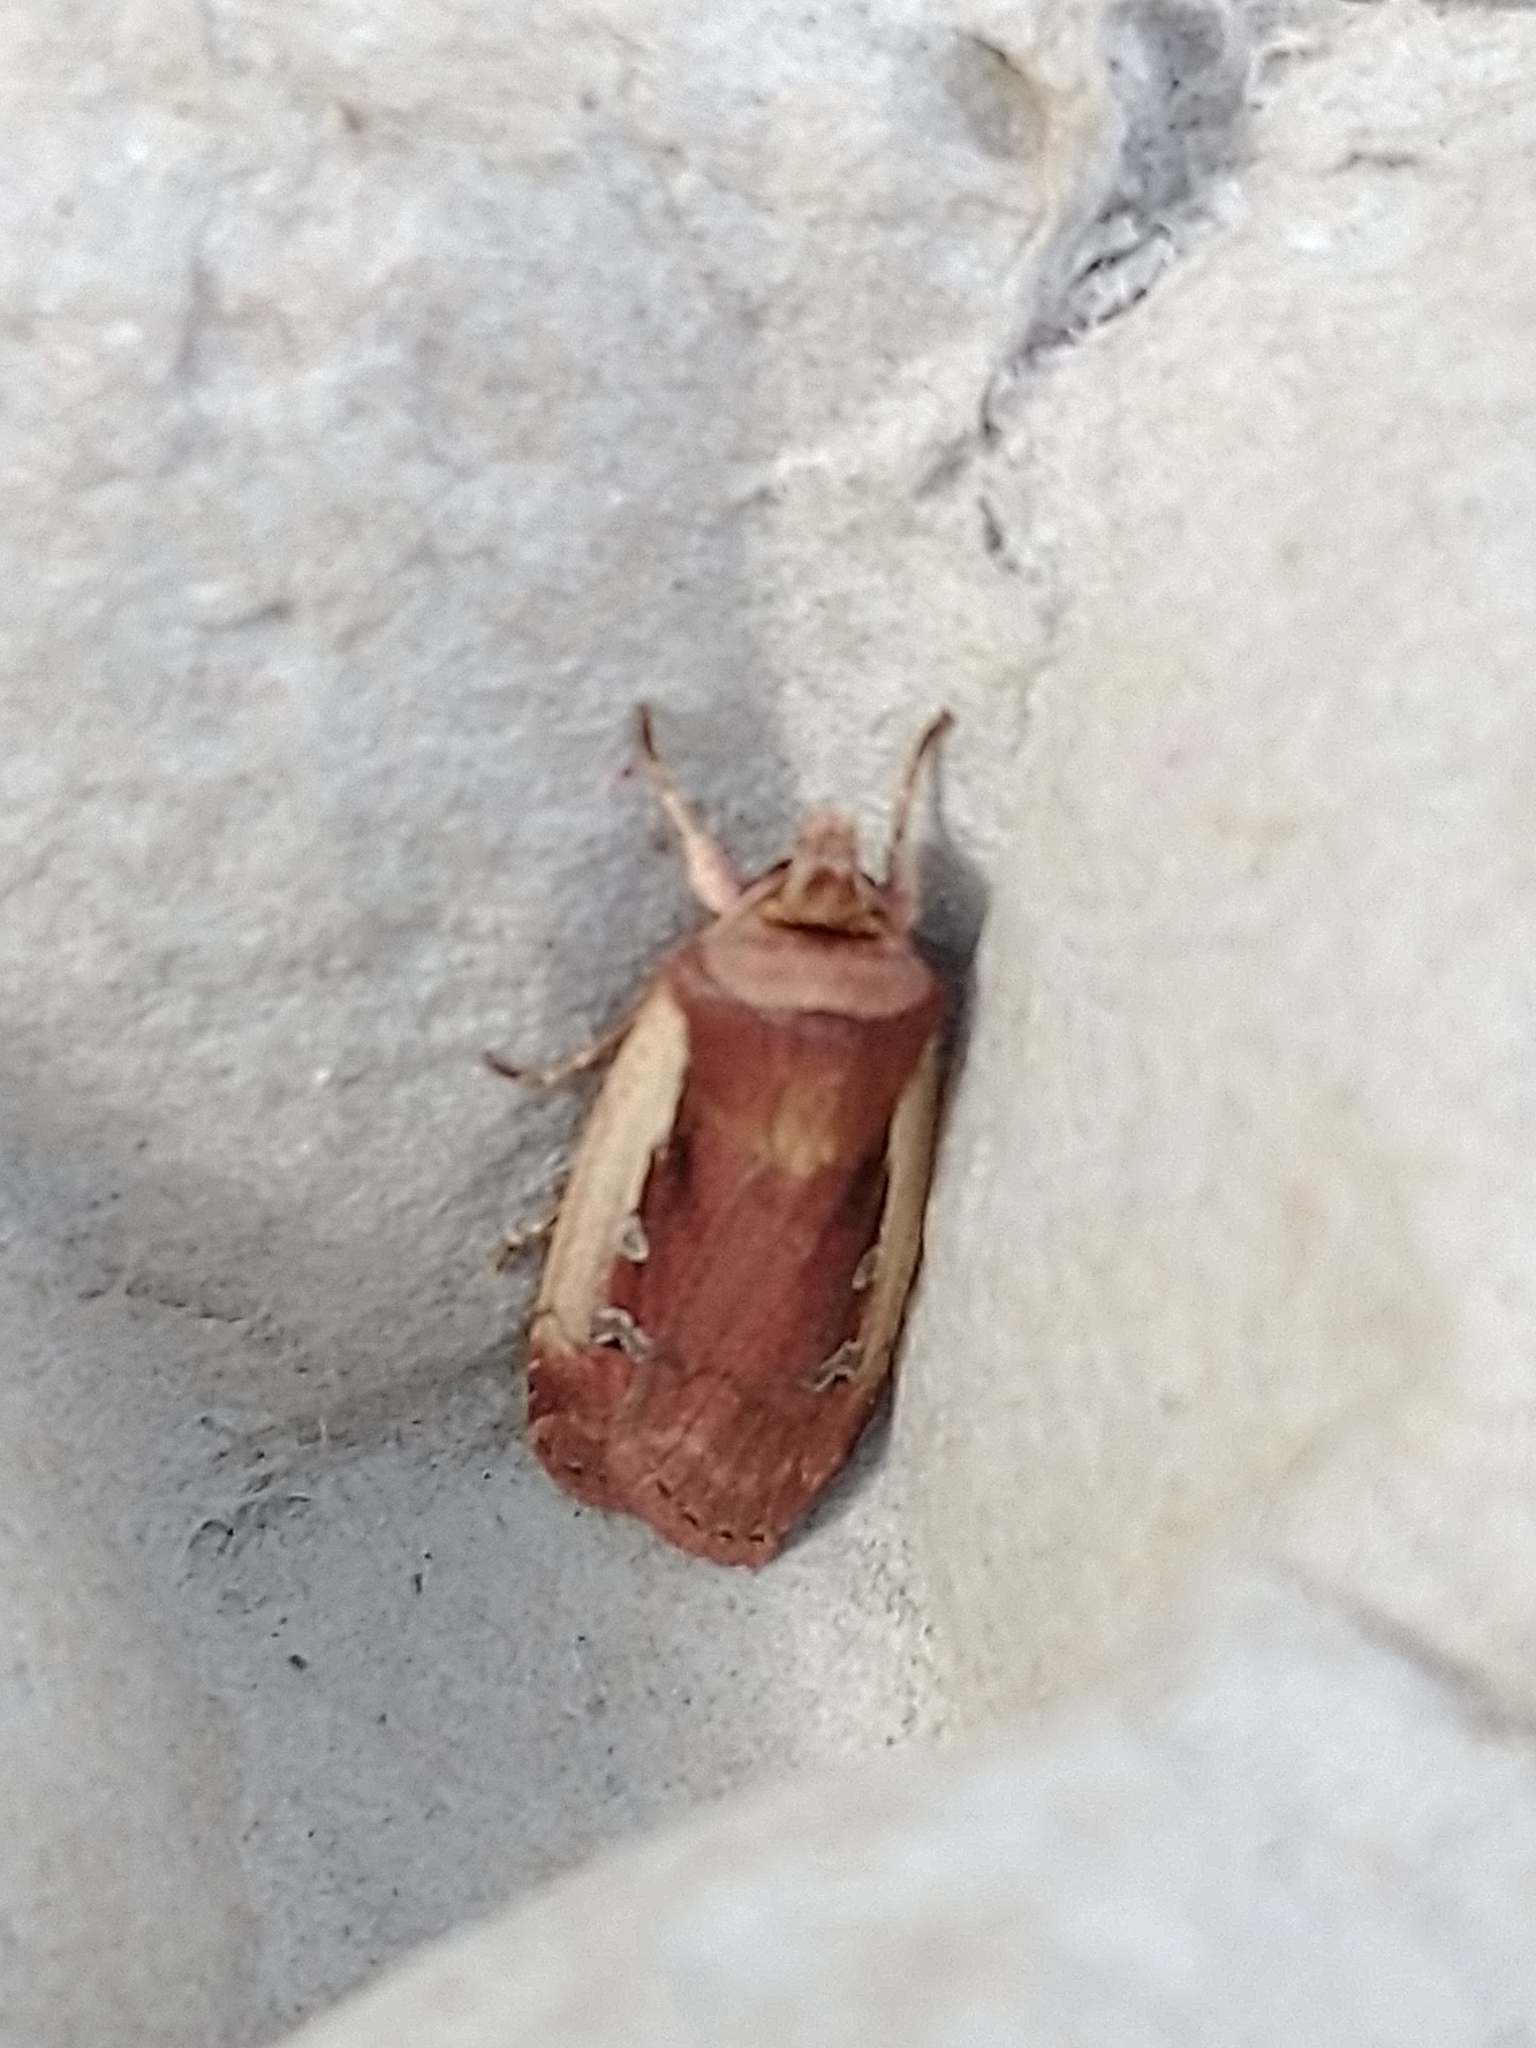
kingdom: Animalia
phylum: Arthropoda
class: Insecta
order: Lepidoptera
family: Noctuidae
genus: Ochropleura
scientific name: Ochropleura plecta
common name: Flame shoulder
